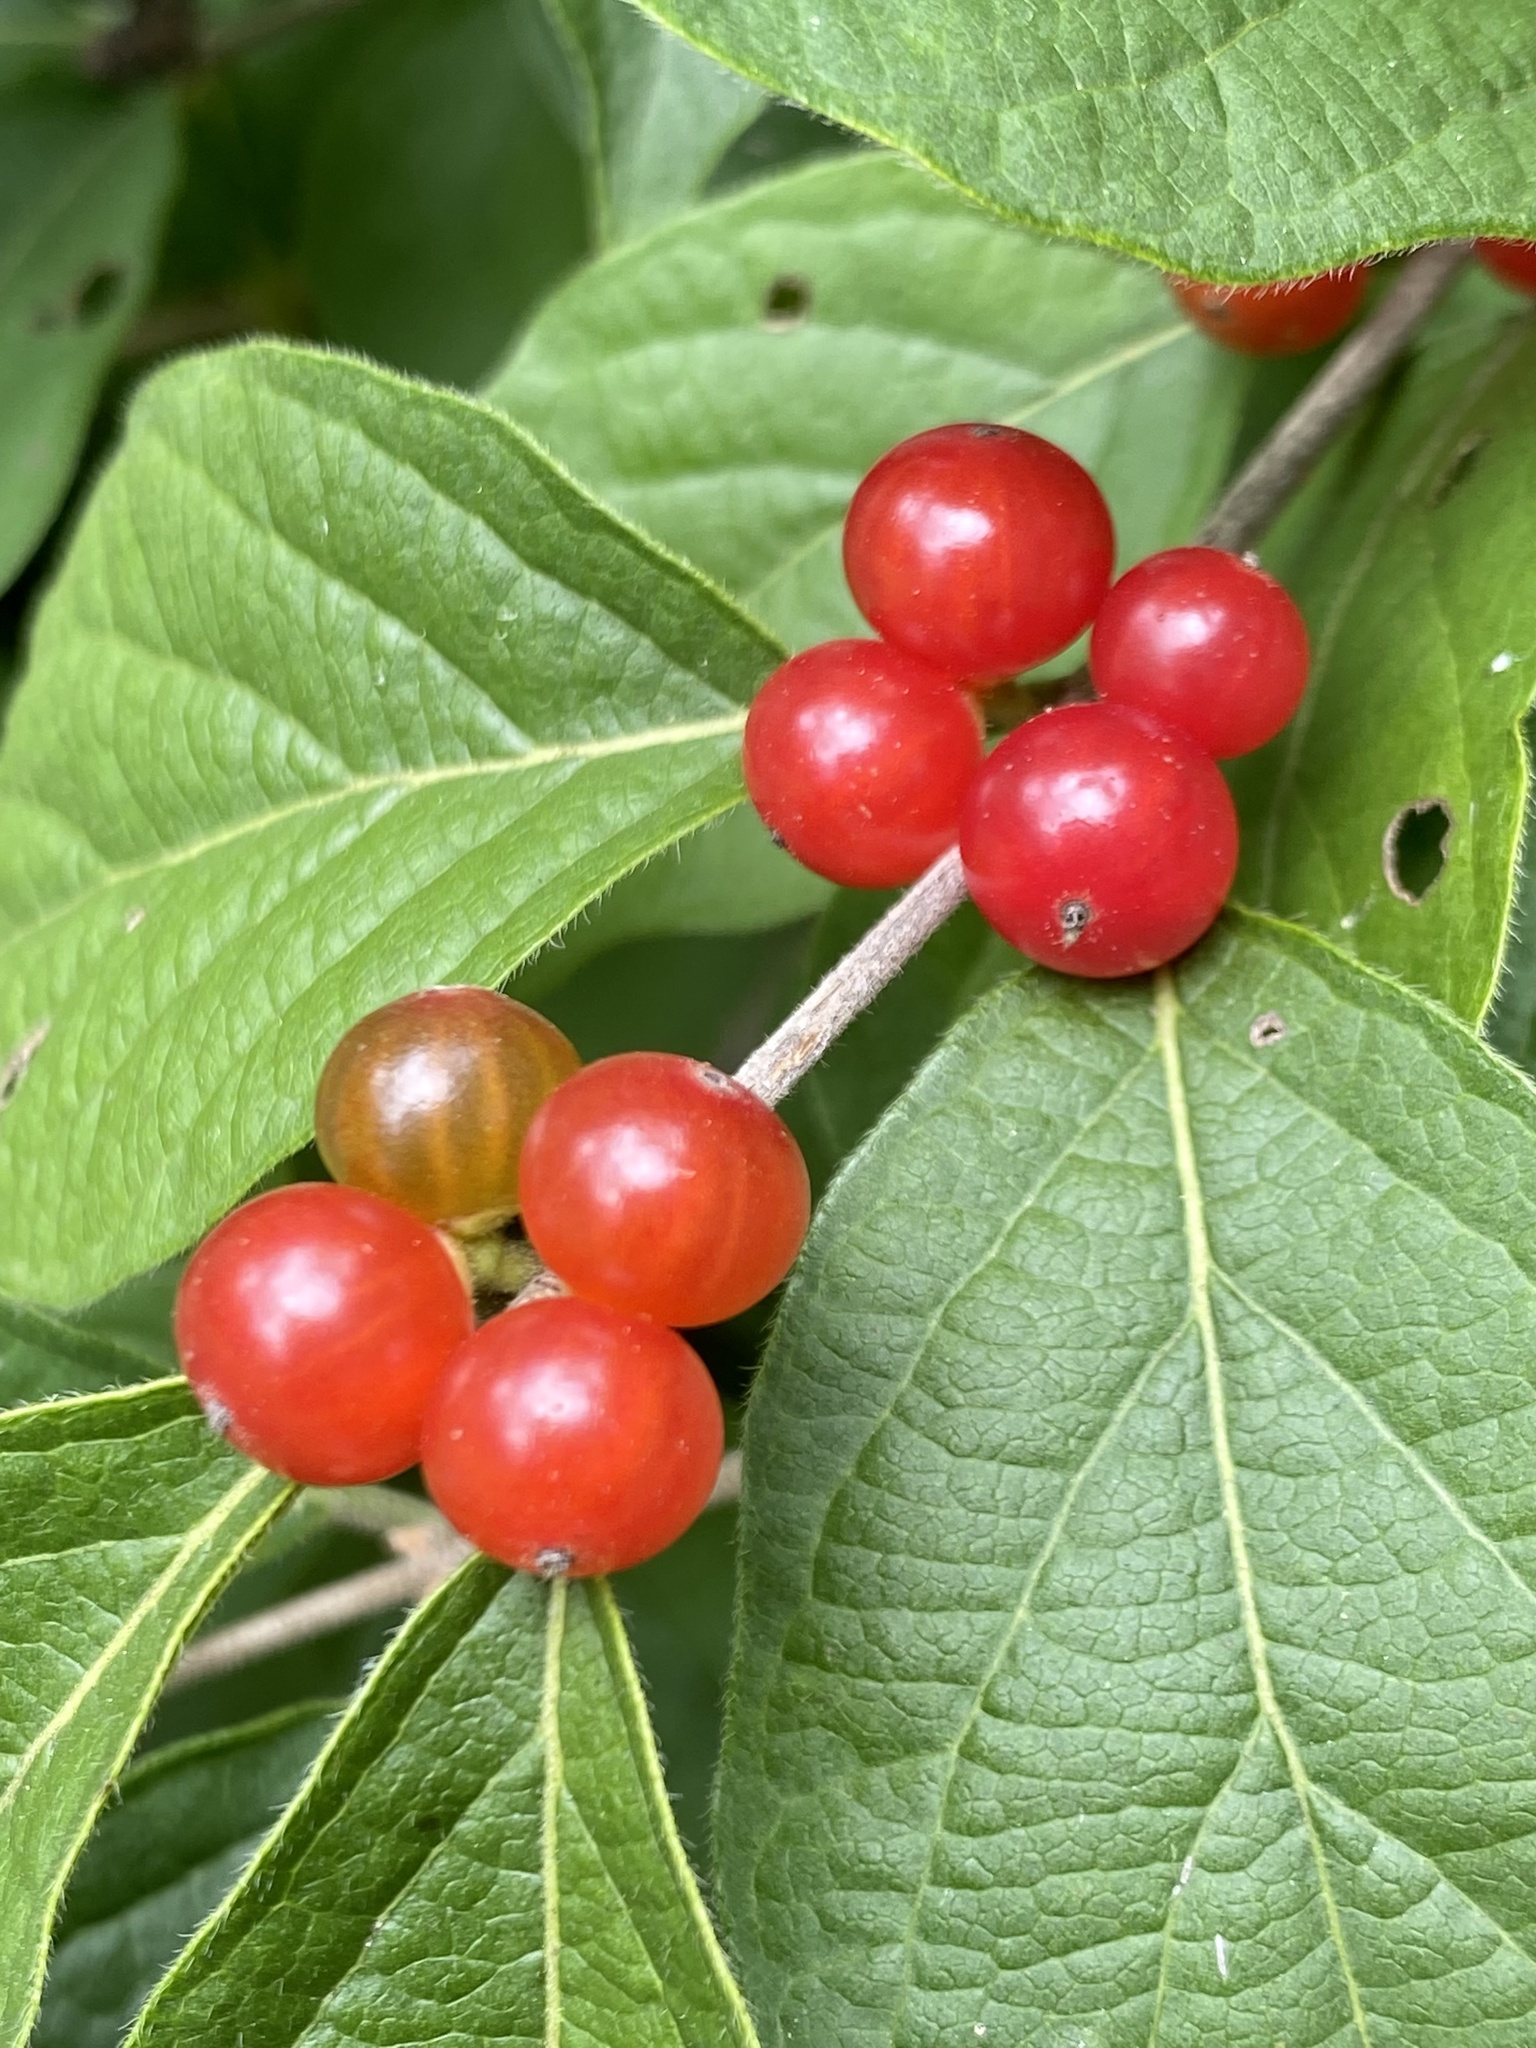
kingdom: Plantae
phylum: Tracheophyta
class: Magnoliopsida
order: Dipsacales
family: Caprifoliaceae
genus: Lonicera
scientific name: Lonicera maackii
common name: Amur honeysuckle
